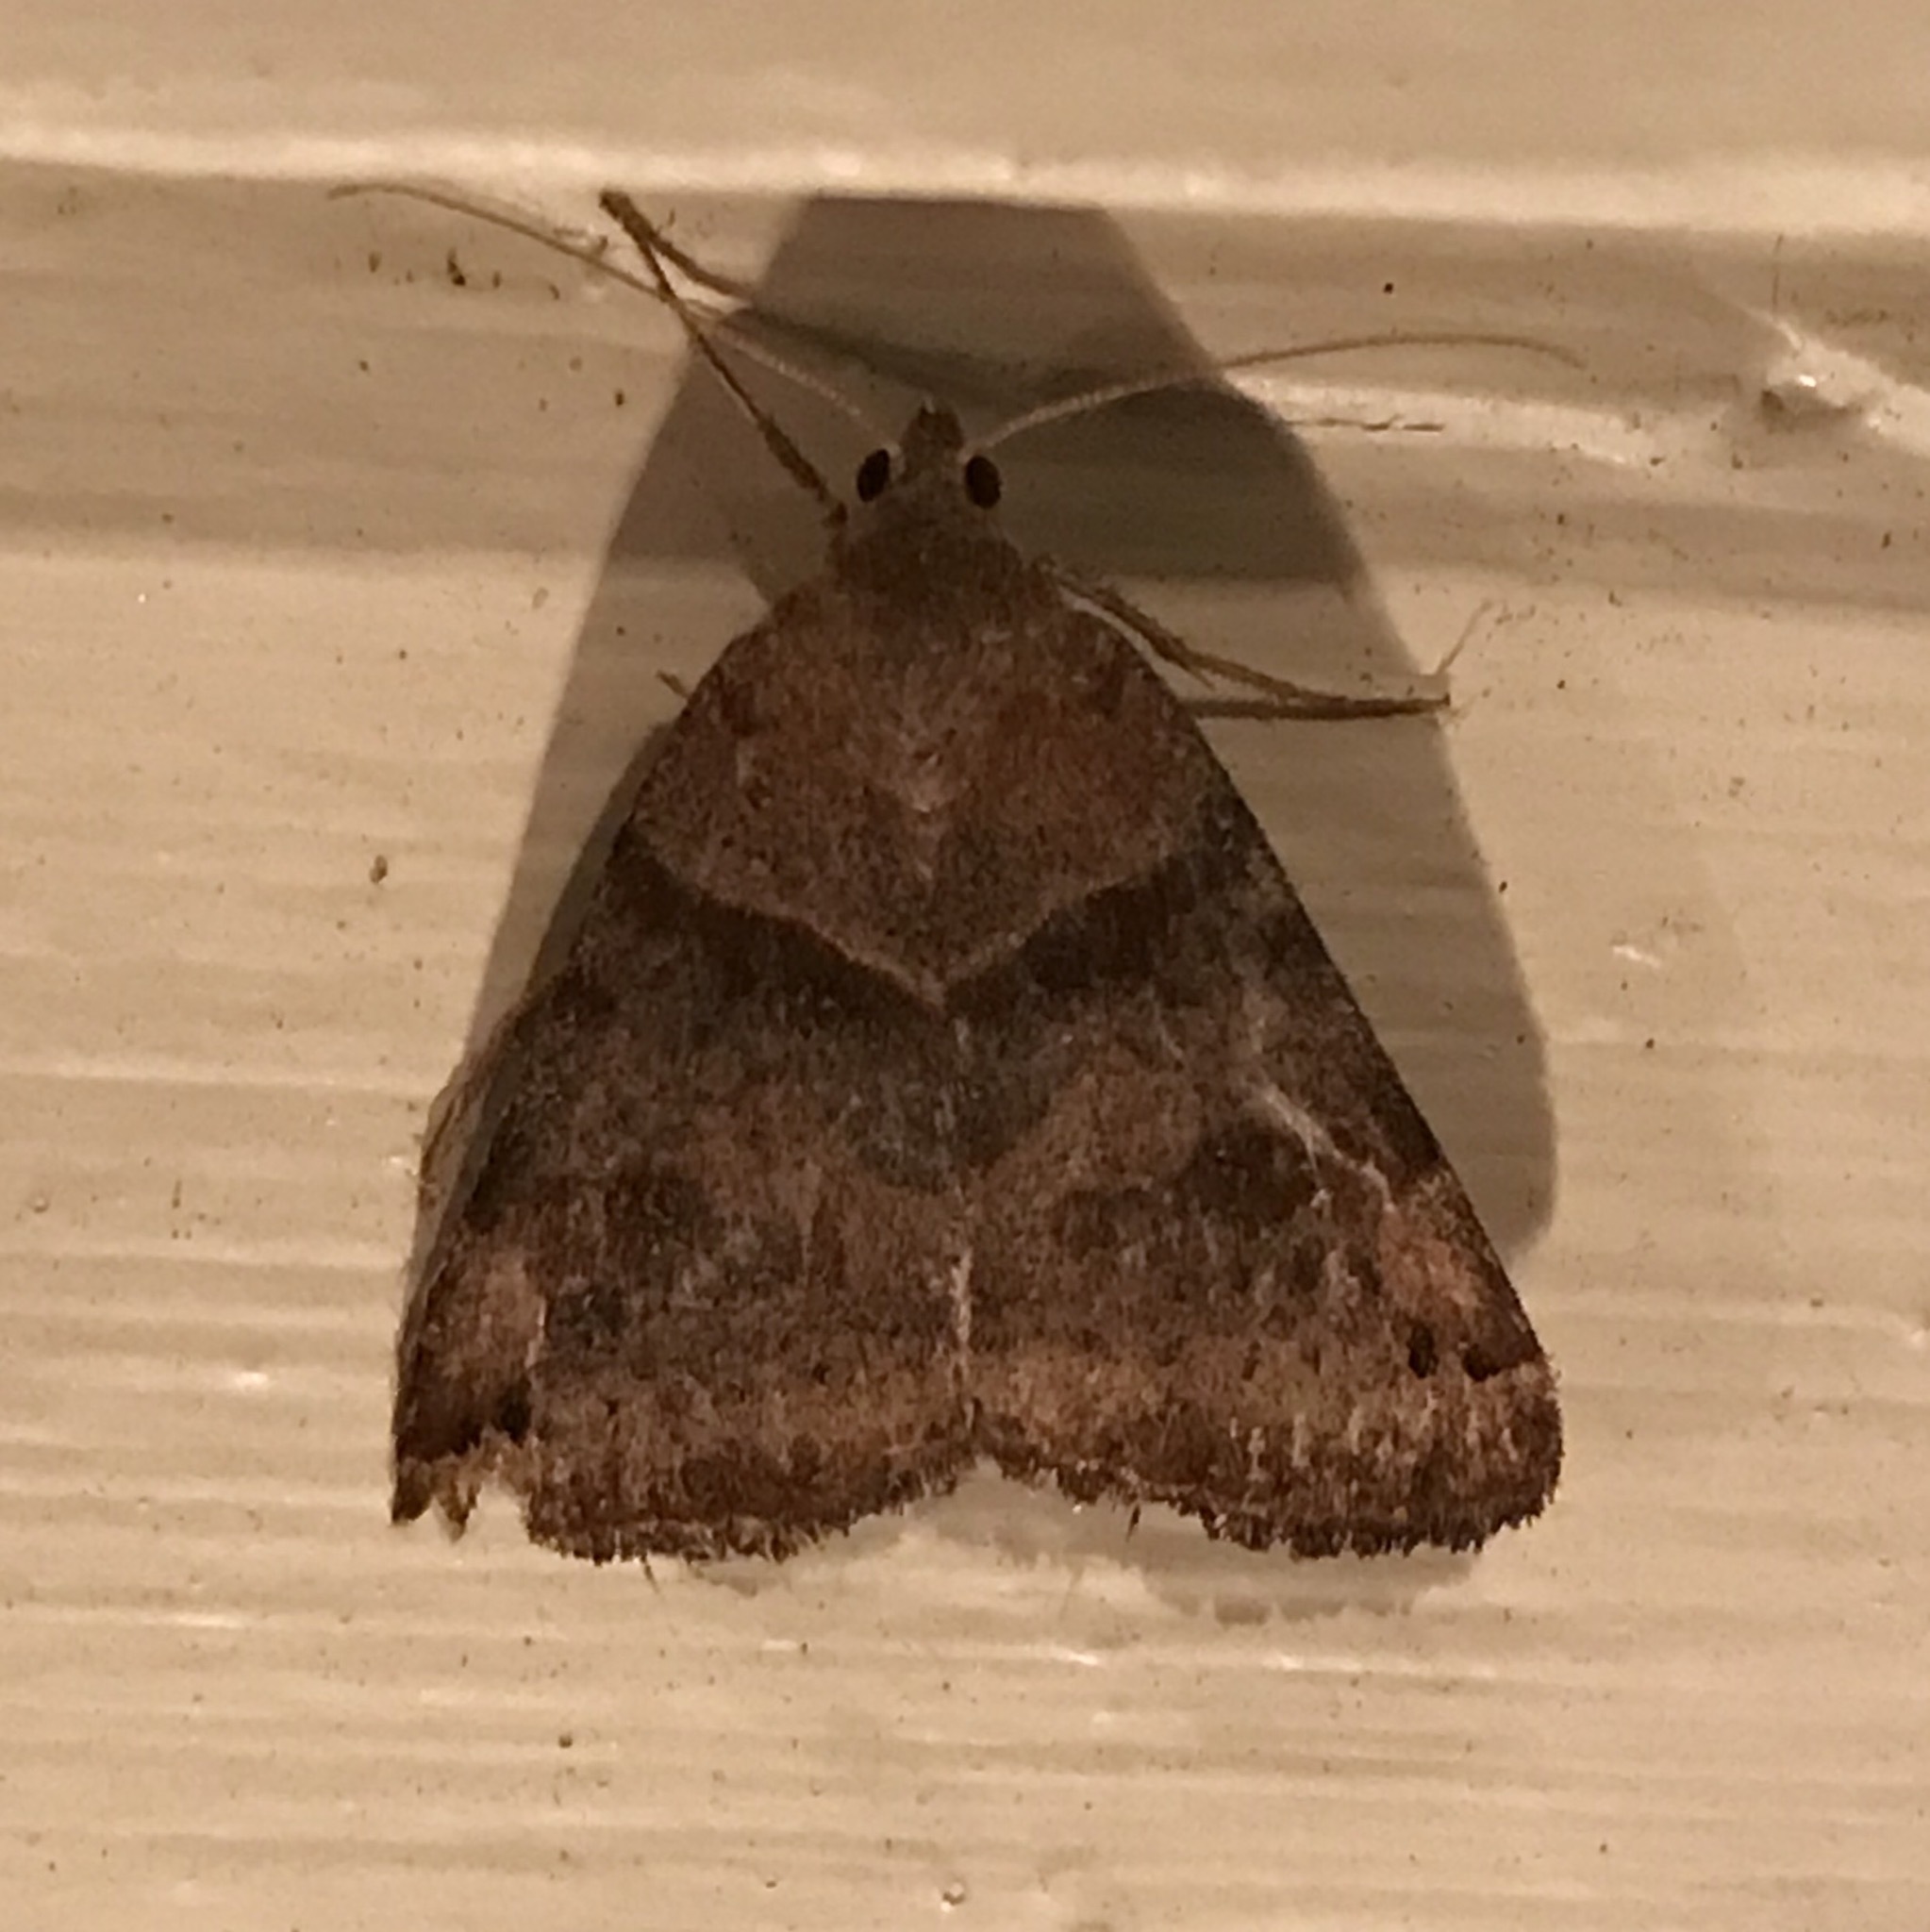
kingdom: Animalia
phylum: Arthropoda
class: Insecta
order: Lepidoptera
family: Erebidae
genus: Caenurgina
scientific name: Caenurgina crassiuscula
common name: Double-barred
